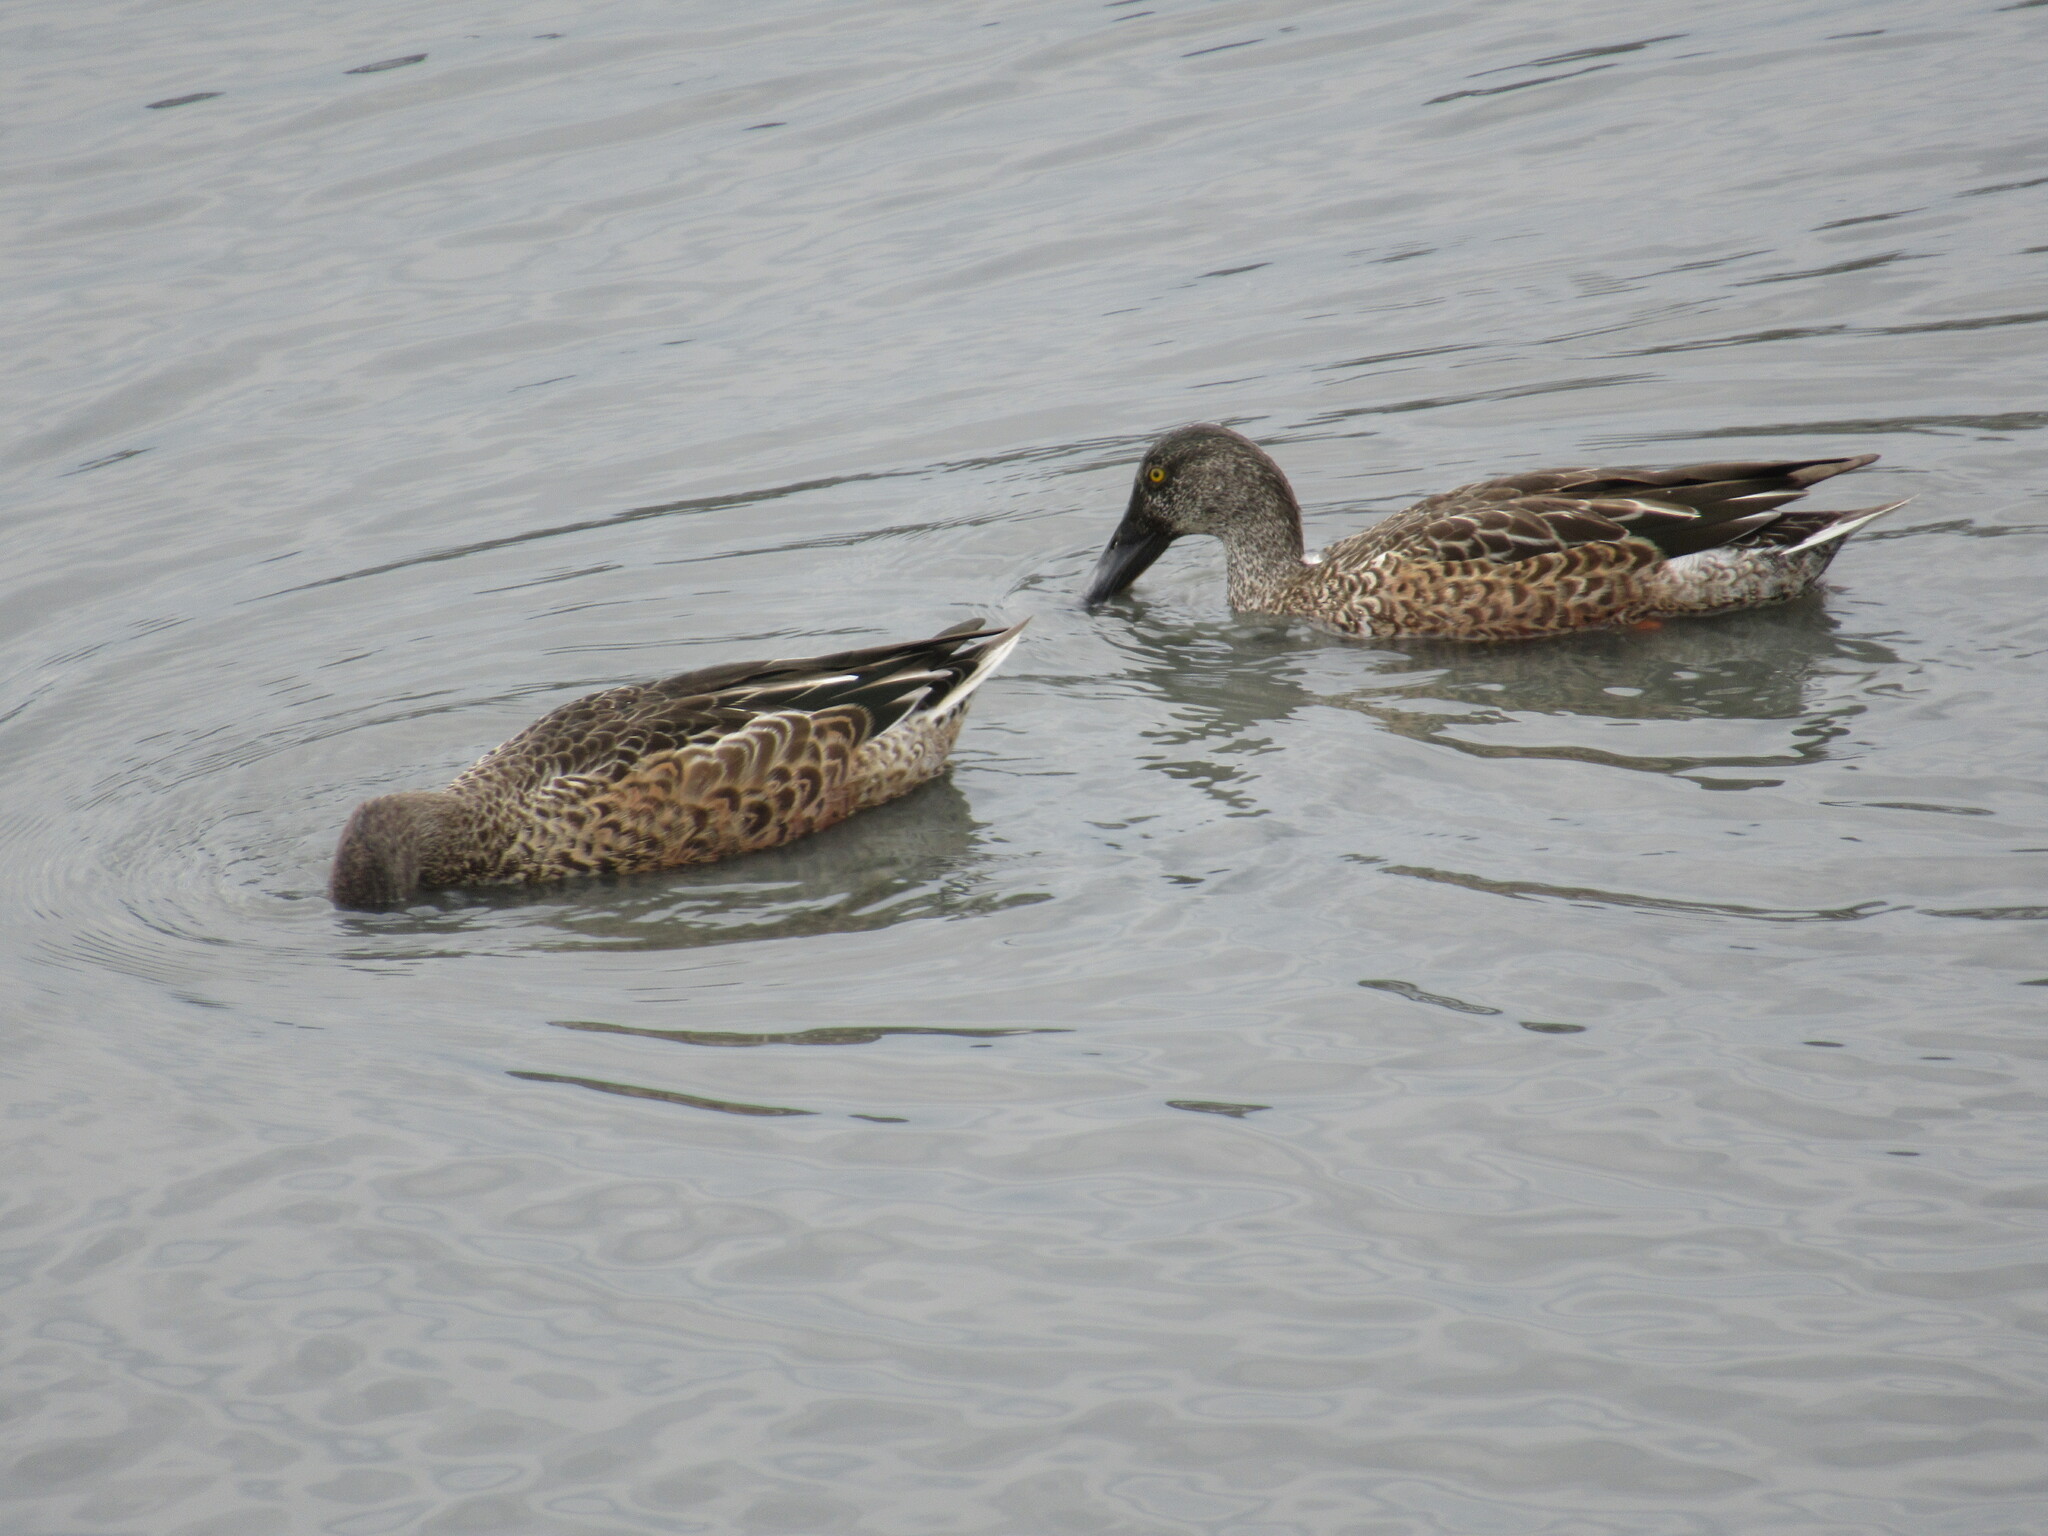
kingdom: Animalia
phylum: Chordata
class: Aves
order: Anseriformes
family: Anatidae
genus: Spatula
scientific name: Spatula clypeata
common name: Northern shoveler
